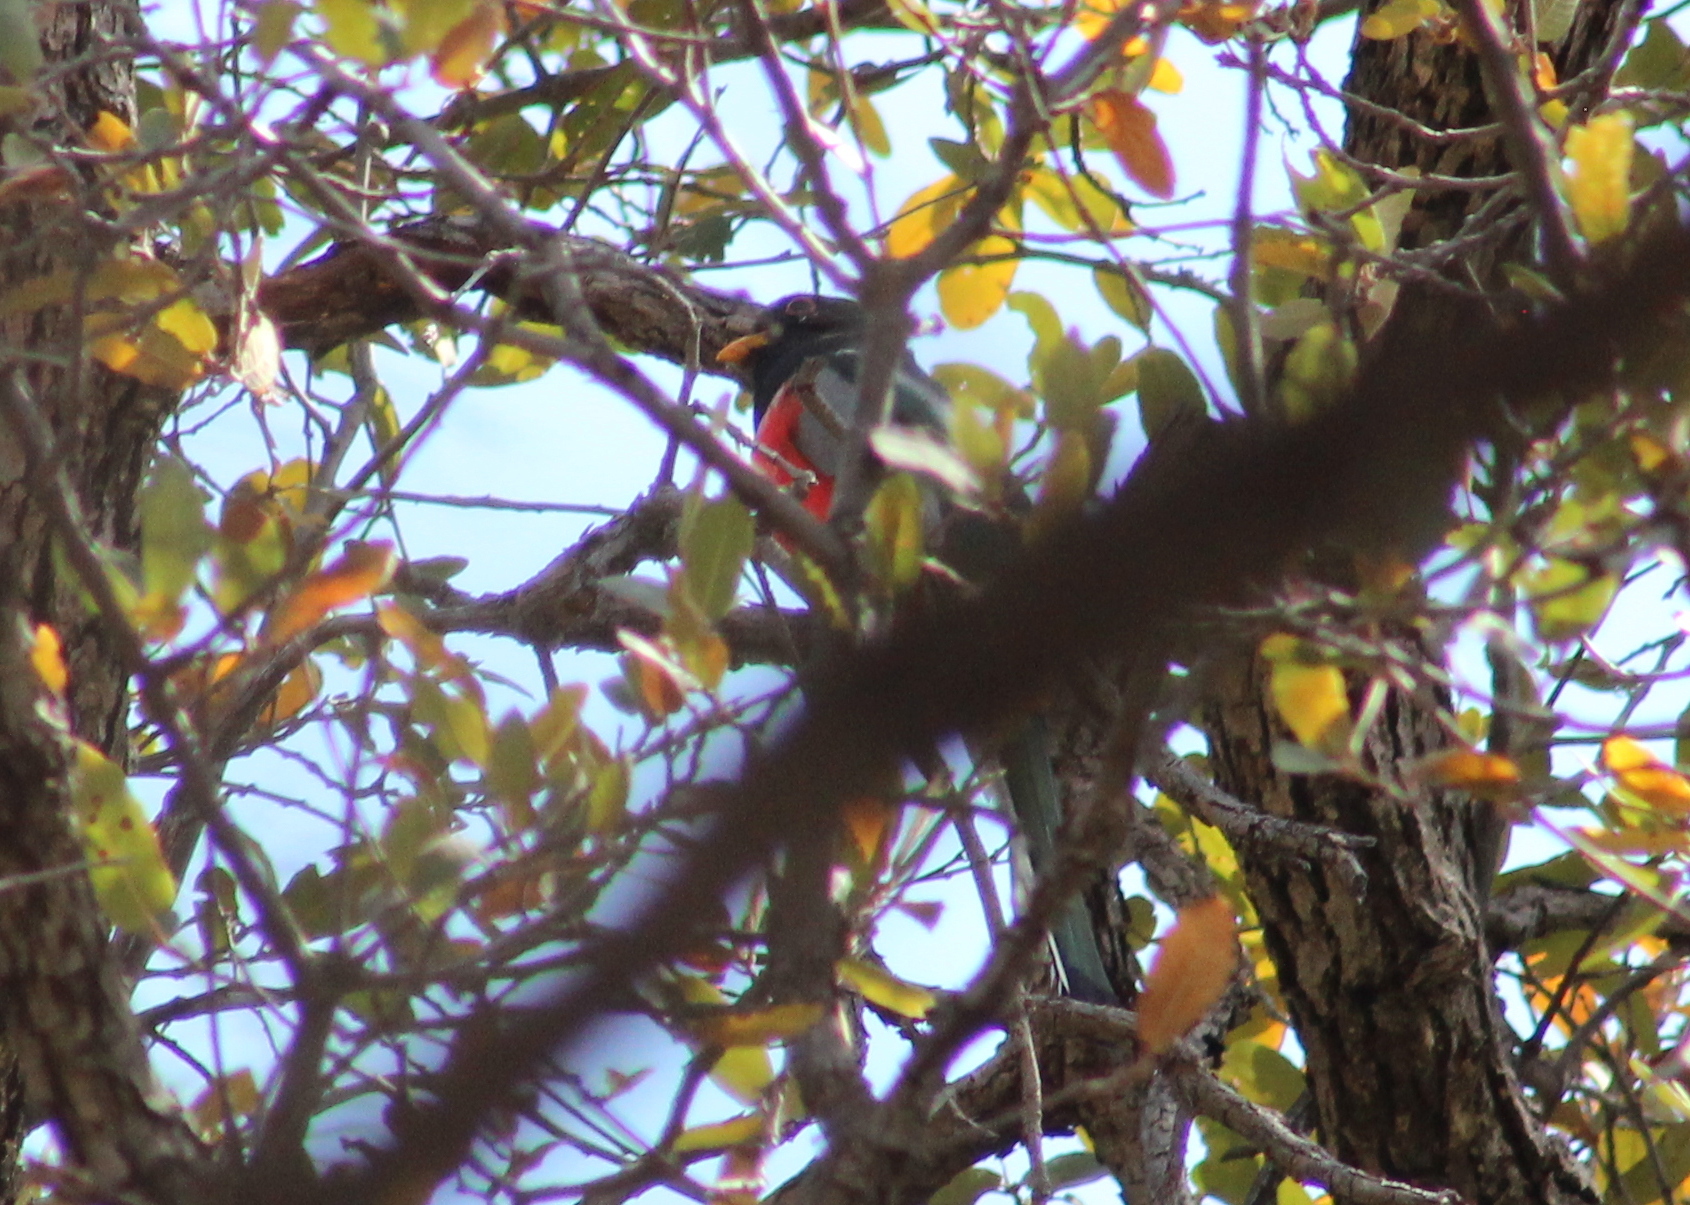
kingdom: Animalia
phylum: Chordata
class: Aves
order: Trogoniformes
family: Trogonidae
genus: Trogon
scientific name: Trogon elegans
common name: Elegant trogon
